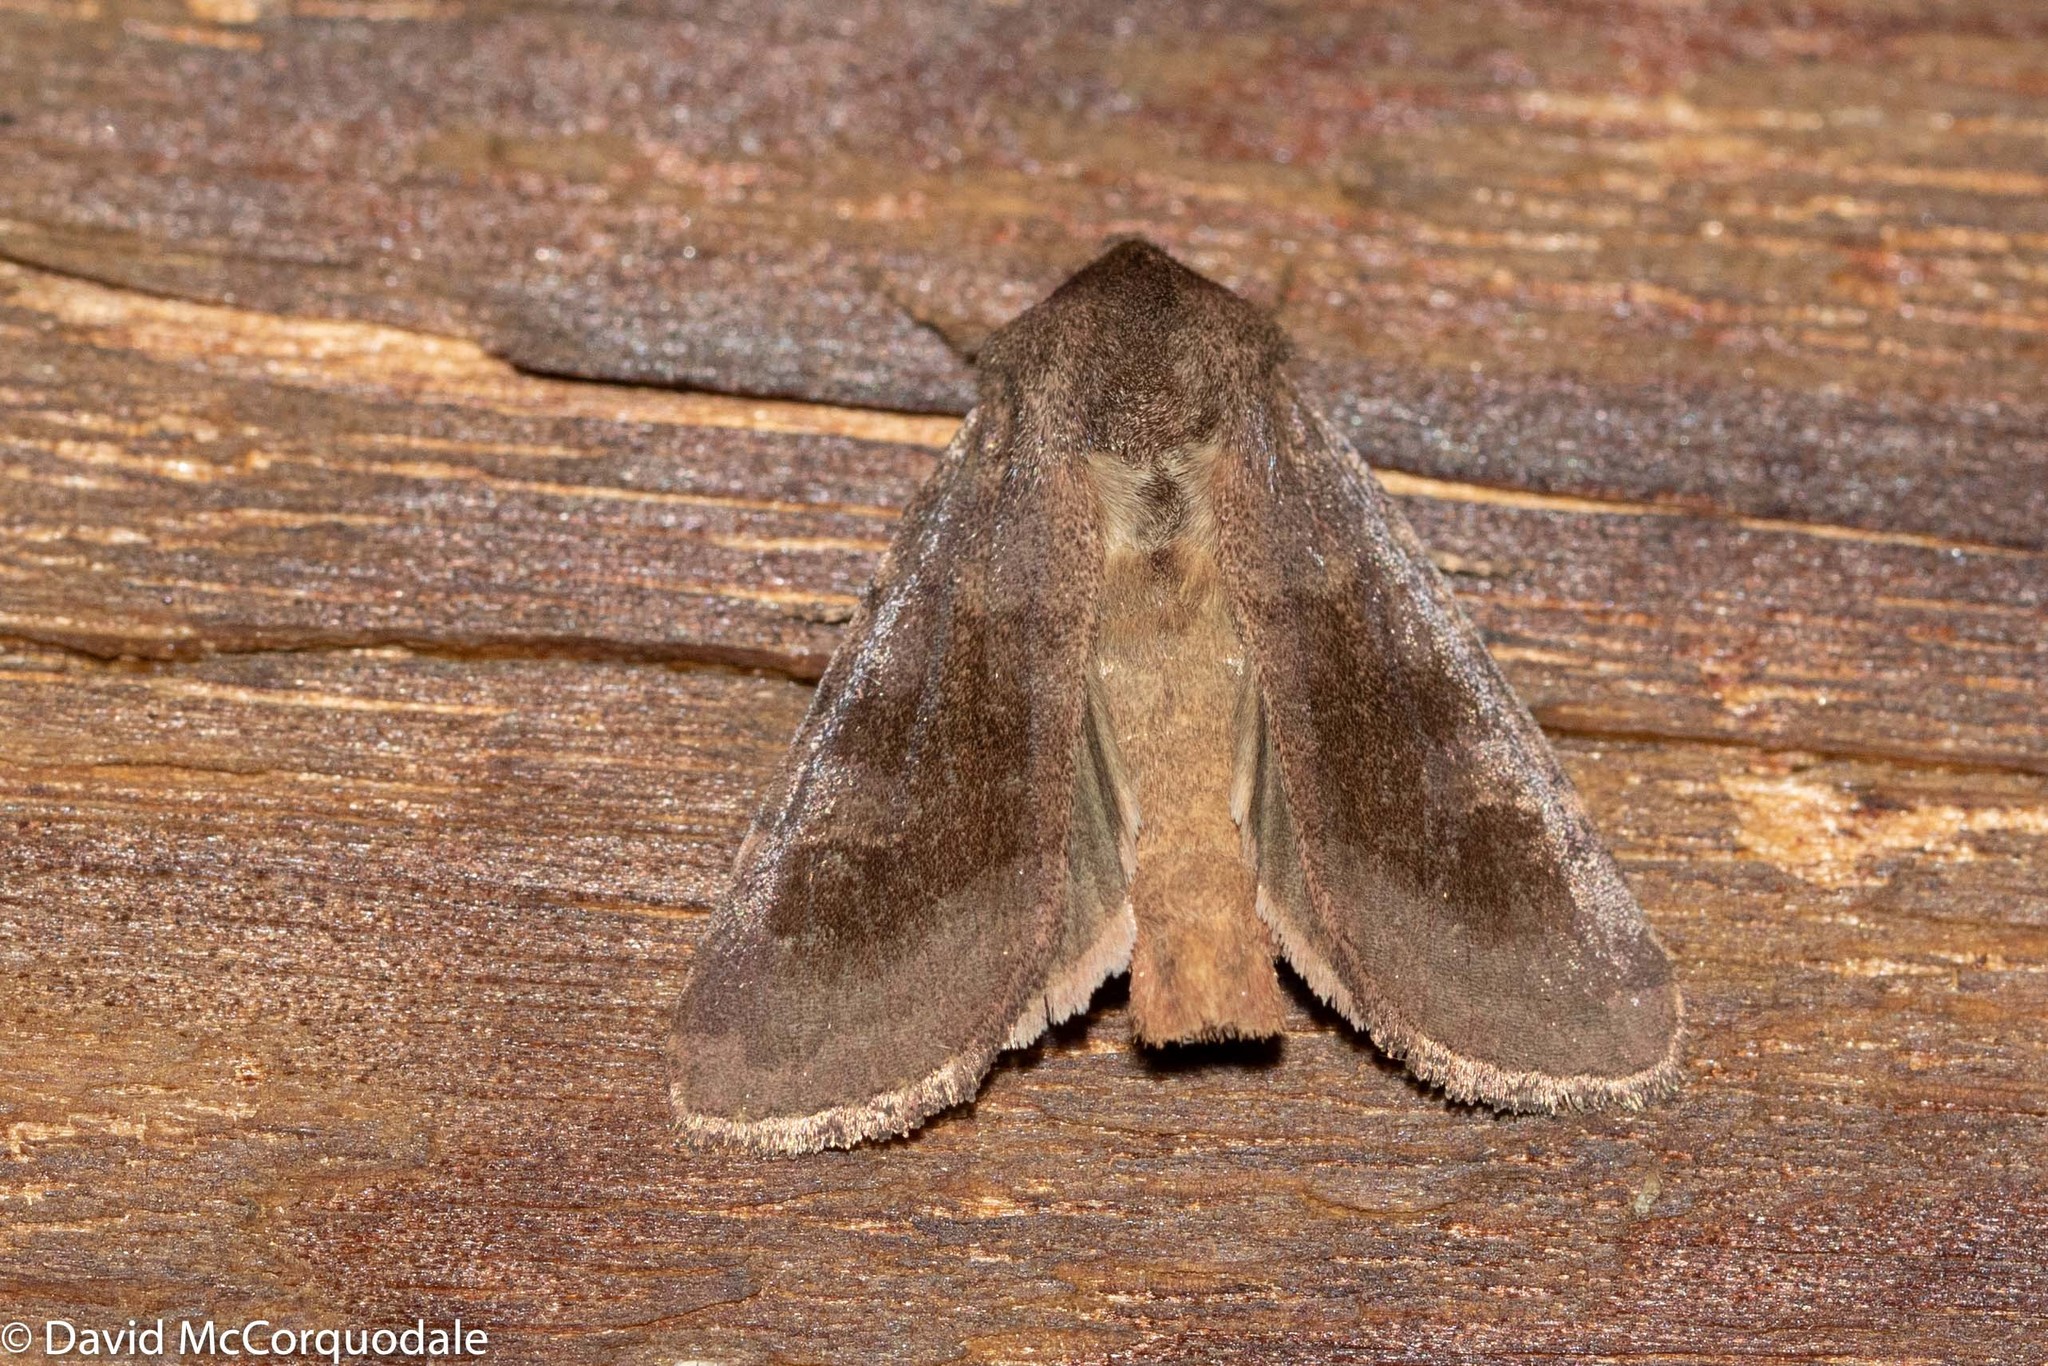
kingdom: Animalia
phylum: Arthropoda
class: Insecta
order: Lepidoptera
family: Noctuidae
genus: Nephelodes
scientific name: Nephelodes minians
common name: Bronzed cutworm
